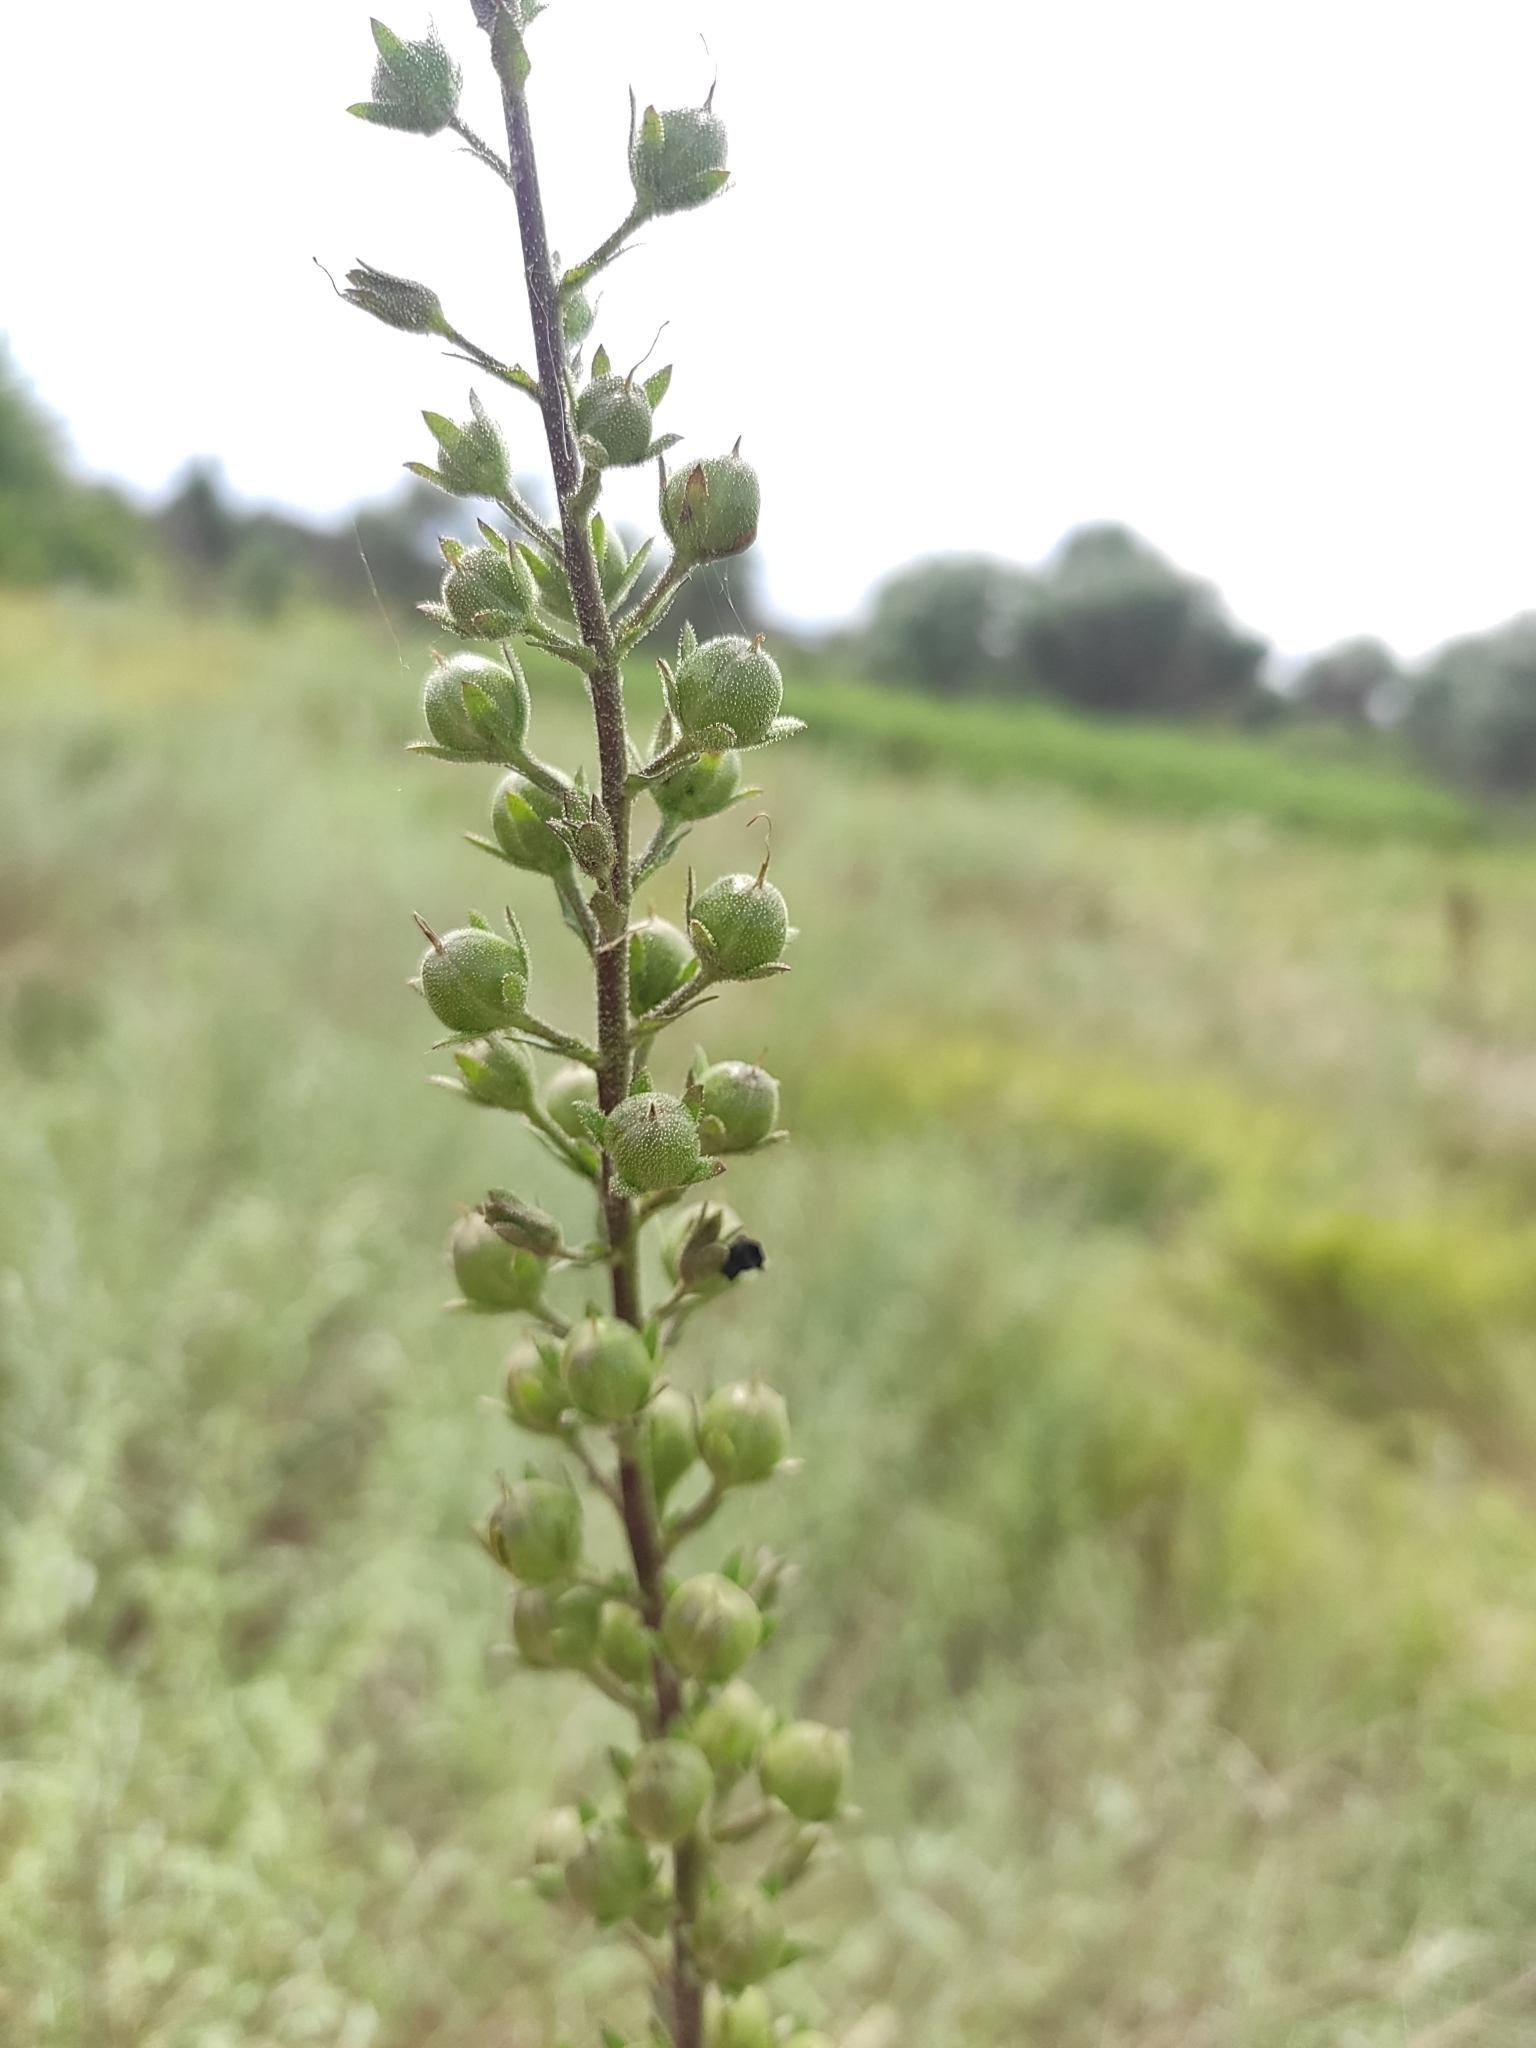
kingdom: Plantae
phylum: Tracheophyta
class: Magnoliopsida
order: Lamiales
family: Scrophulariaceae
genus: Verbascum
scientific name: Verbascum blattaria
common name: Moth mullein
